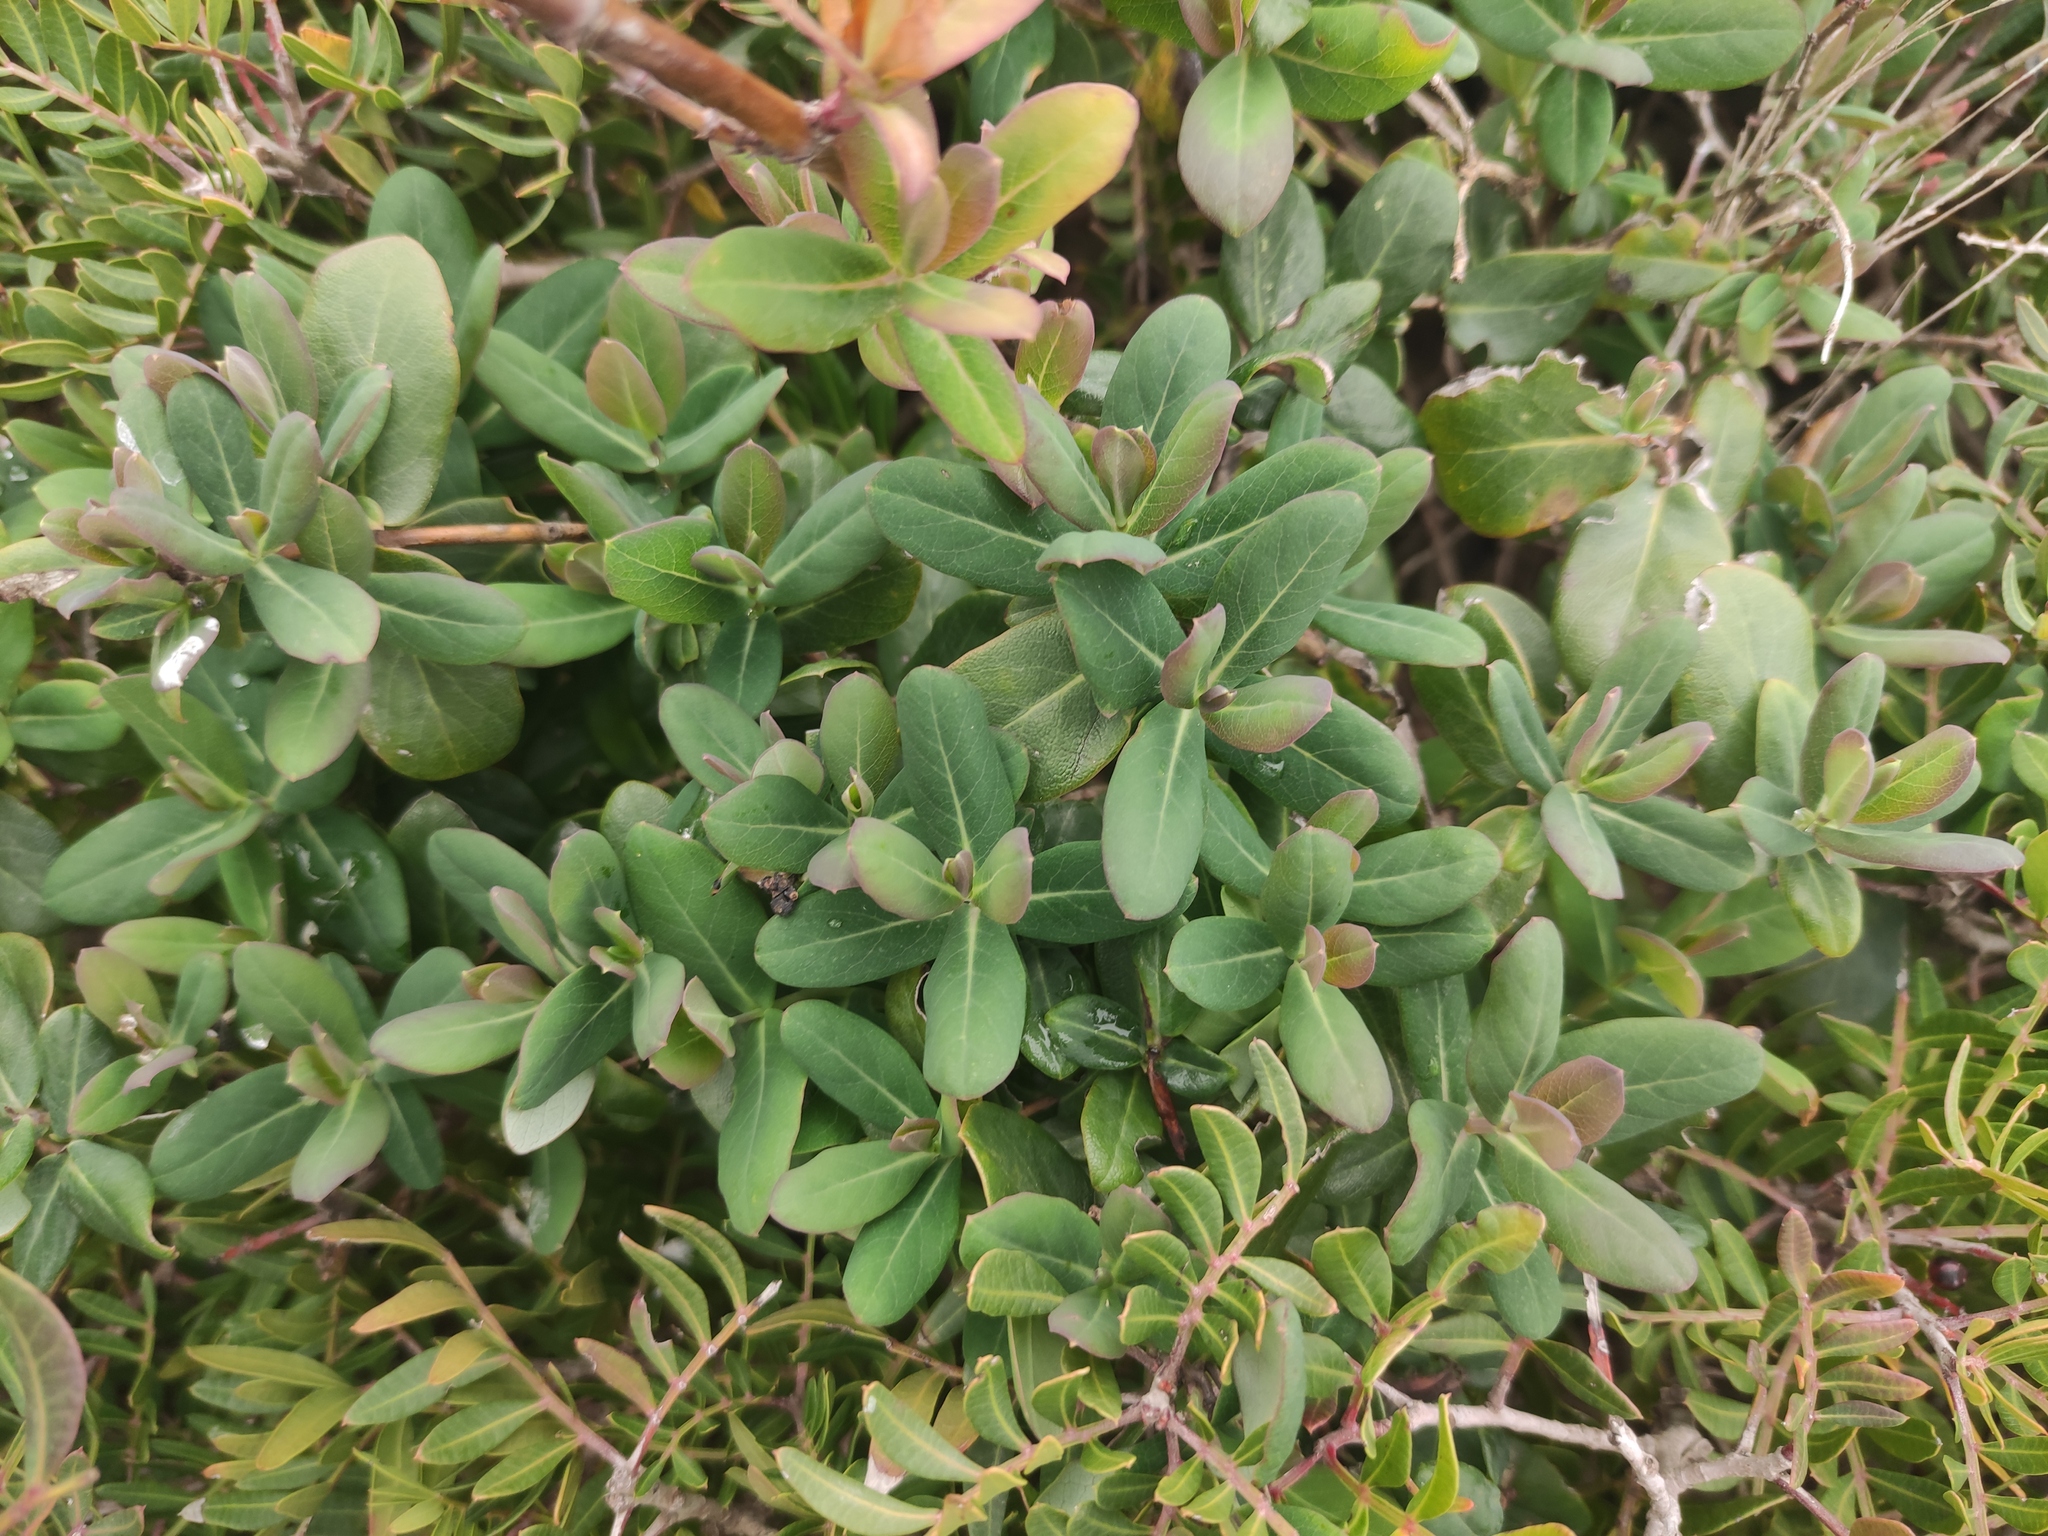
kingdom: Plantae
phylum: Tracheophyta
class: Magnoliopsida
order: Dipsacales
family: Caprifoliaceae
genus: Lonicera
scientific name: Lonicera implexa
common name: Minorca honeysuckle
